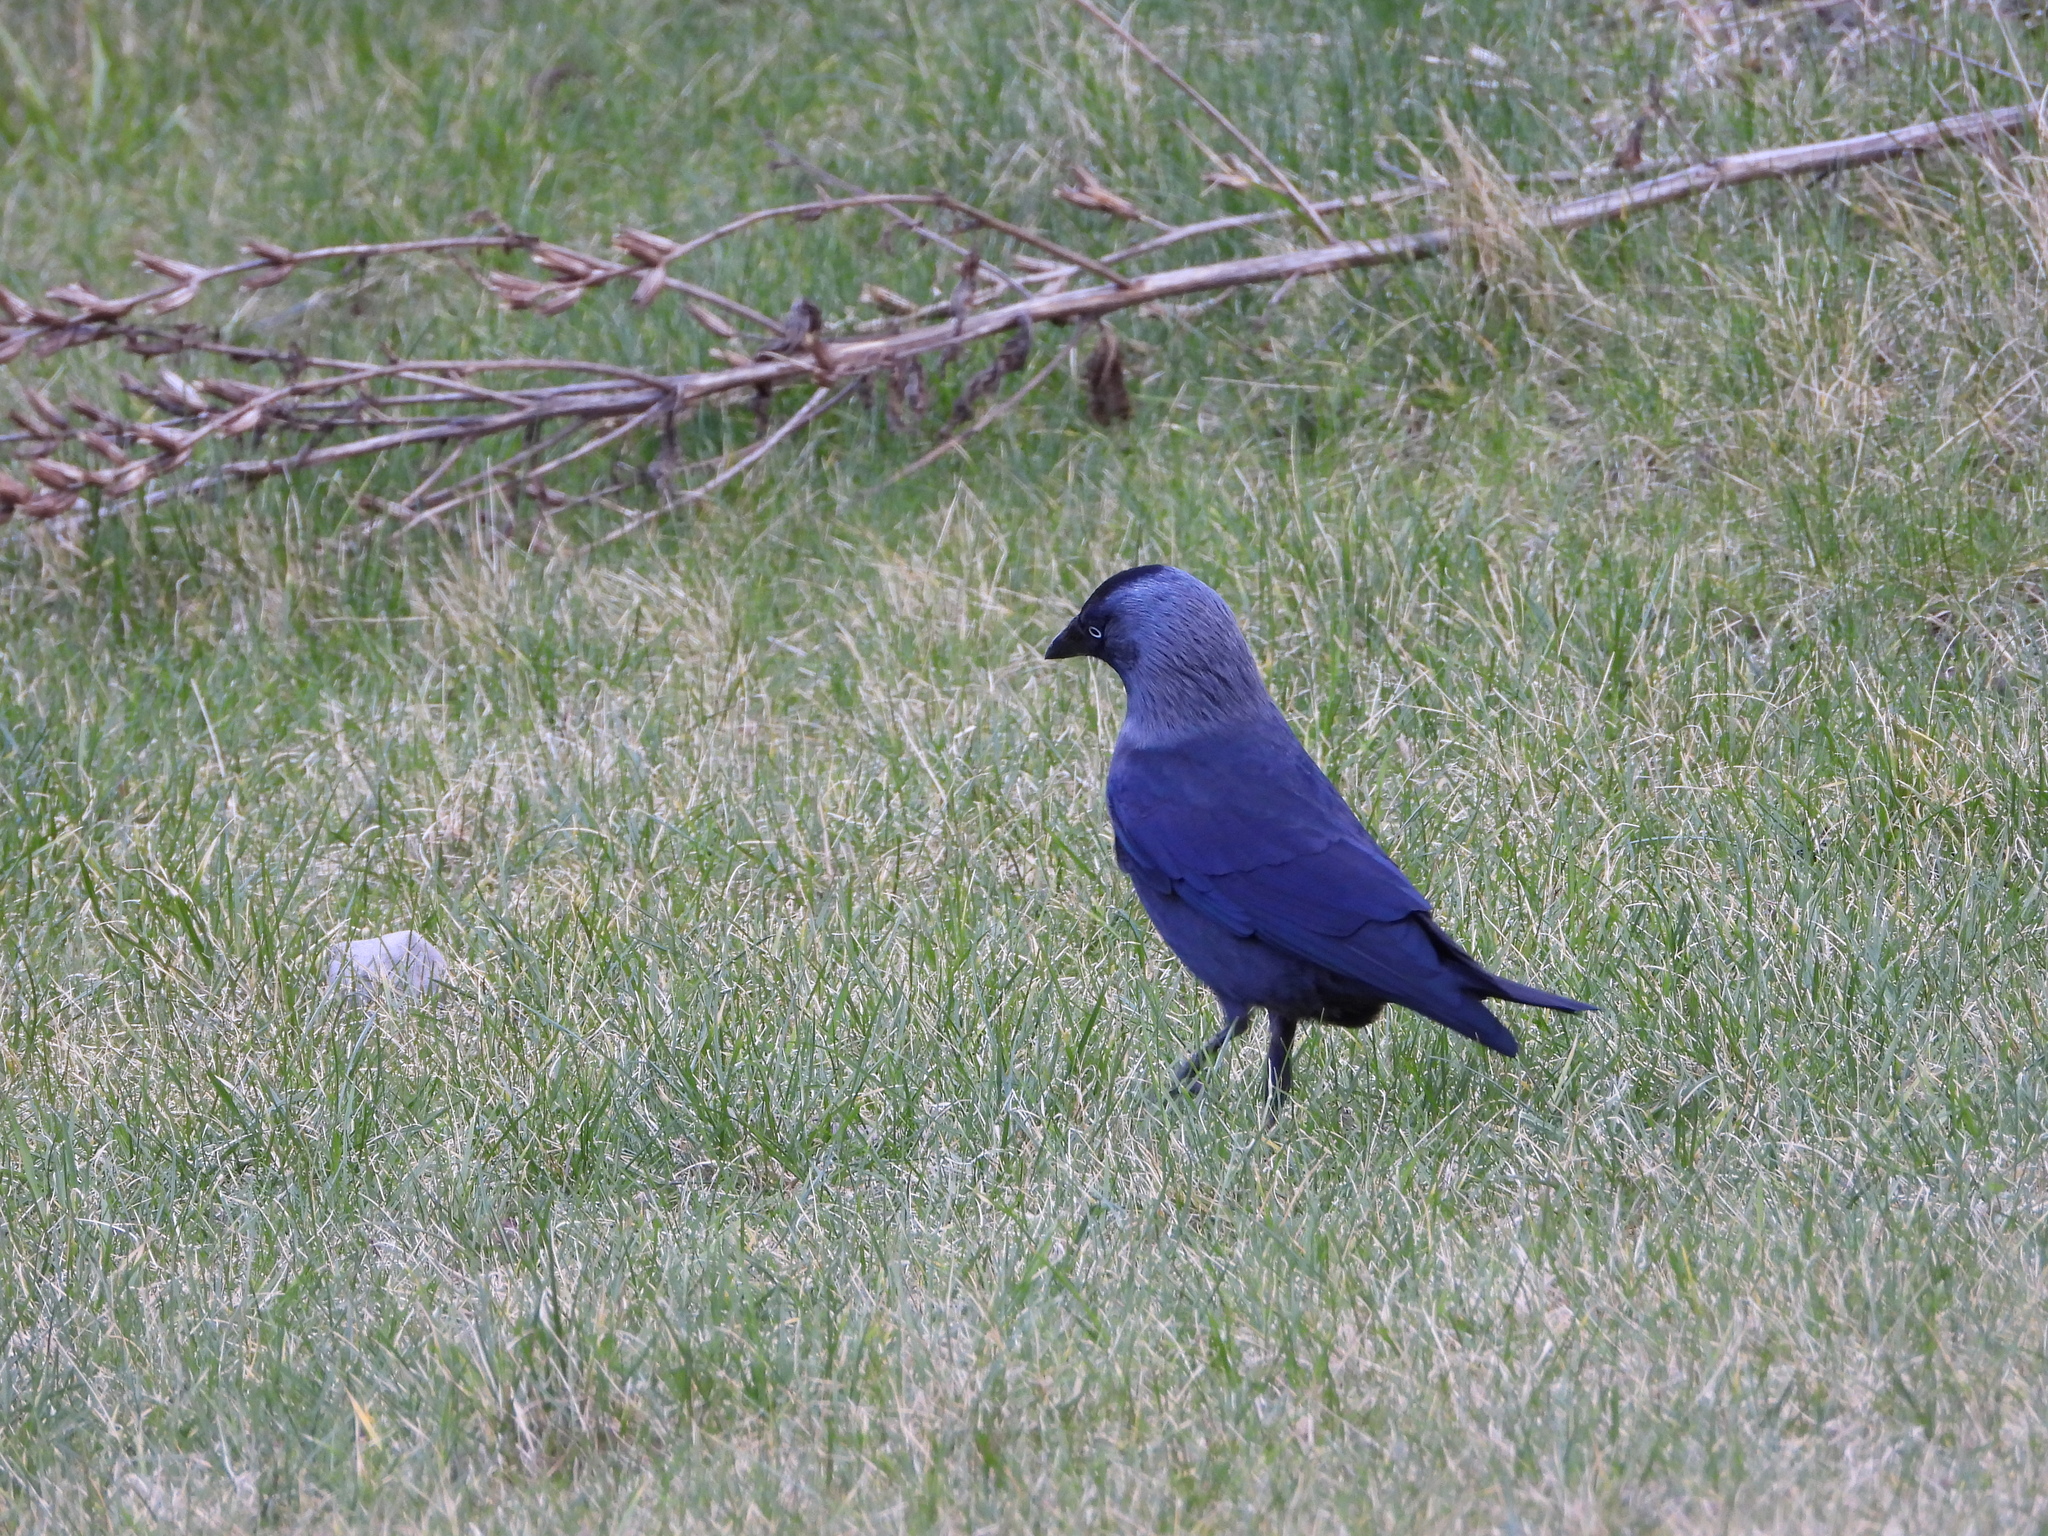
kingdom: Animalia
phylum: Chordata
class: Aves
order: Passeriformes
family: Corvidae
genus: Coloeus
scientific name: Coloeus monedula
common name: Western jackdaw
